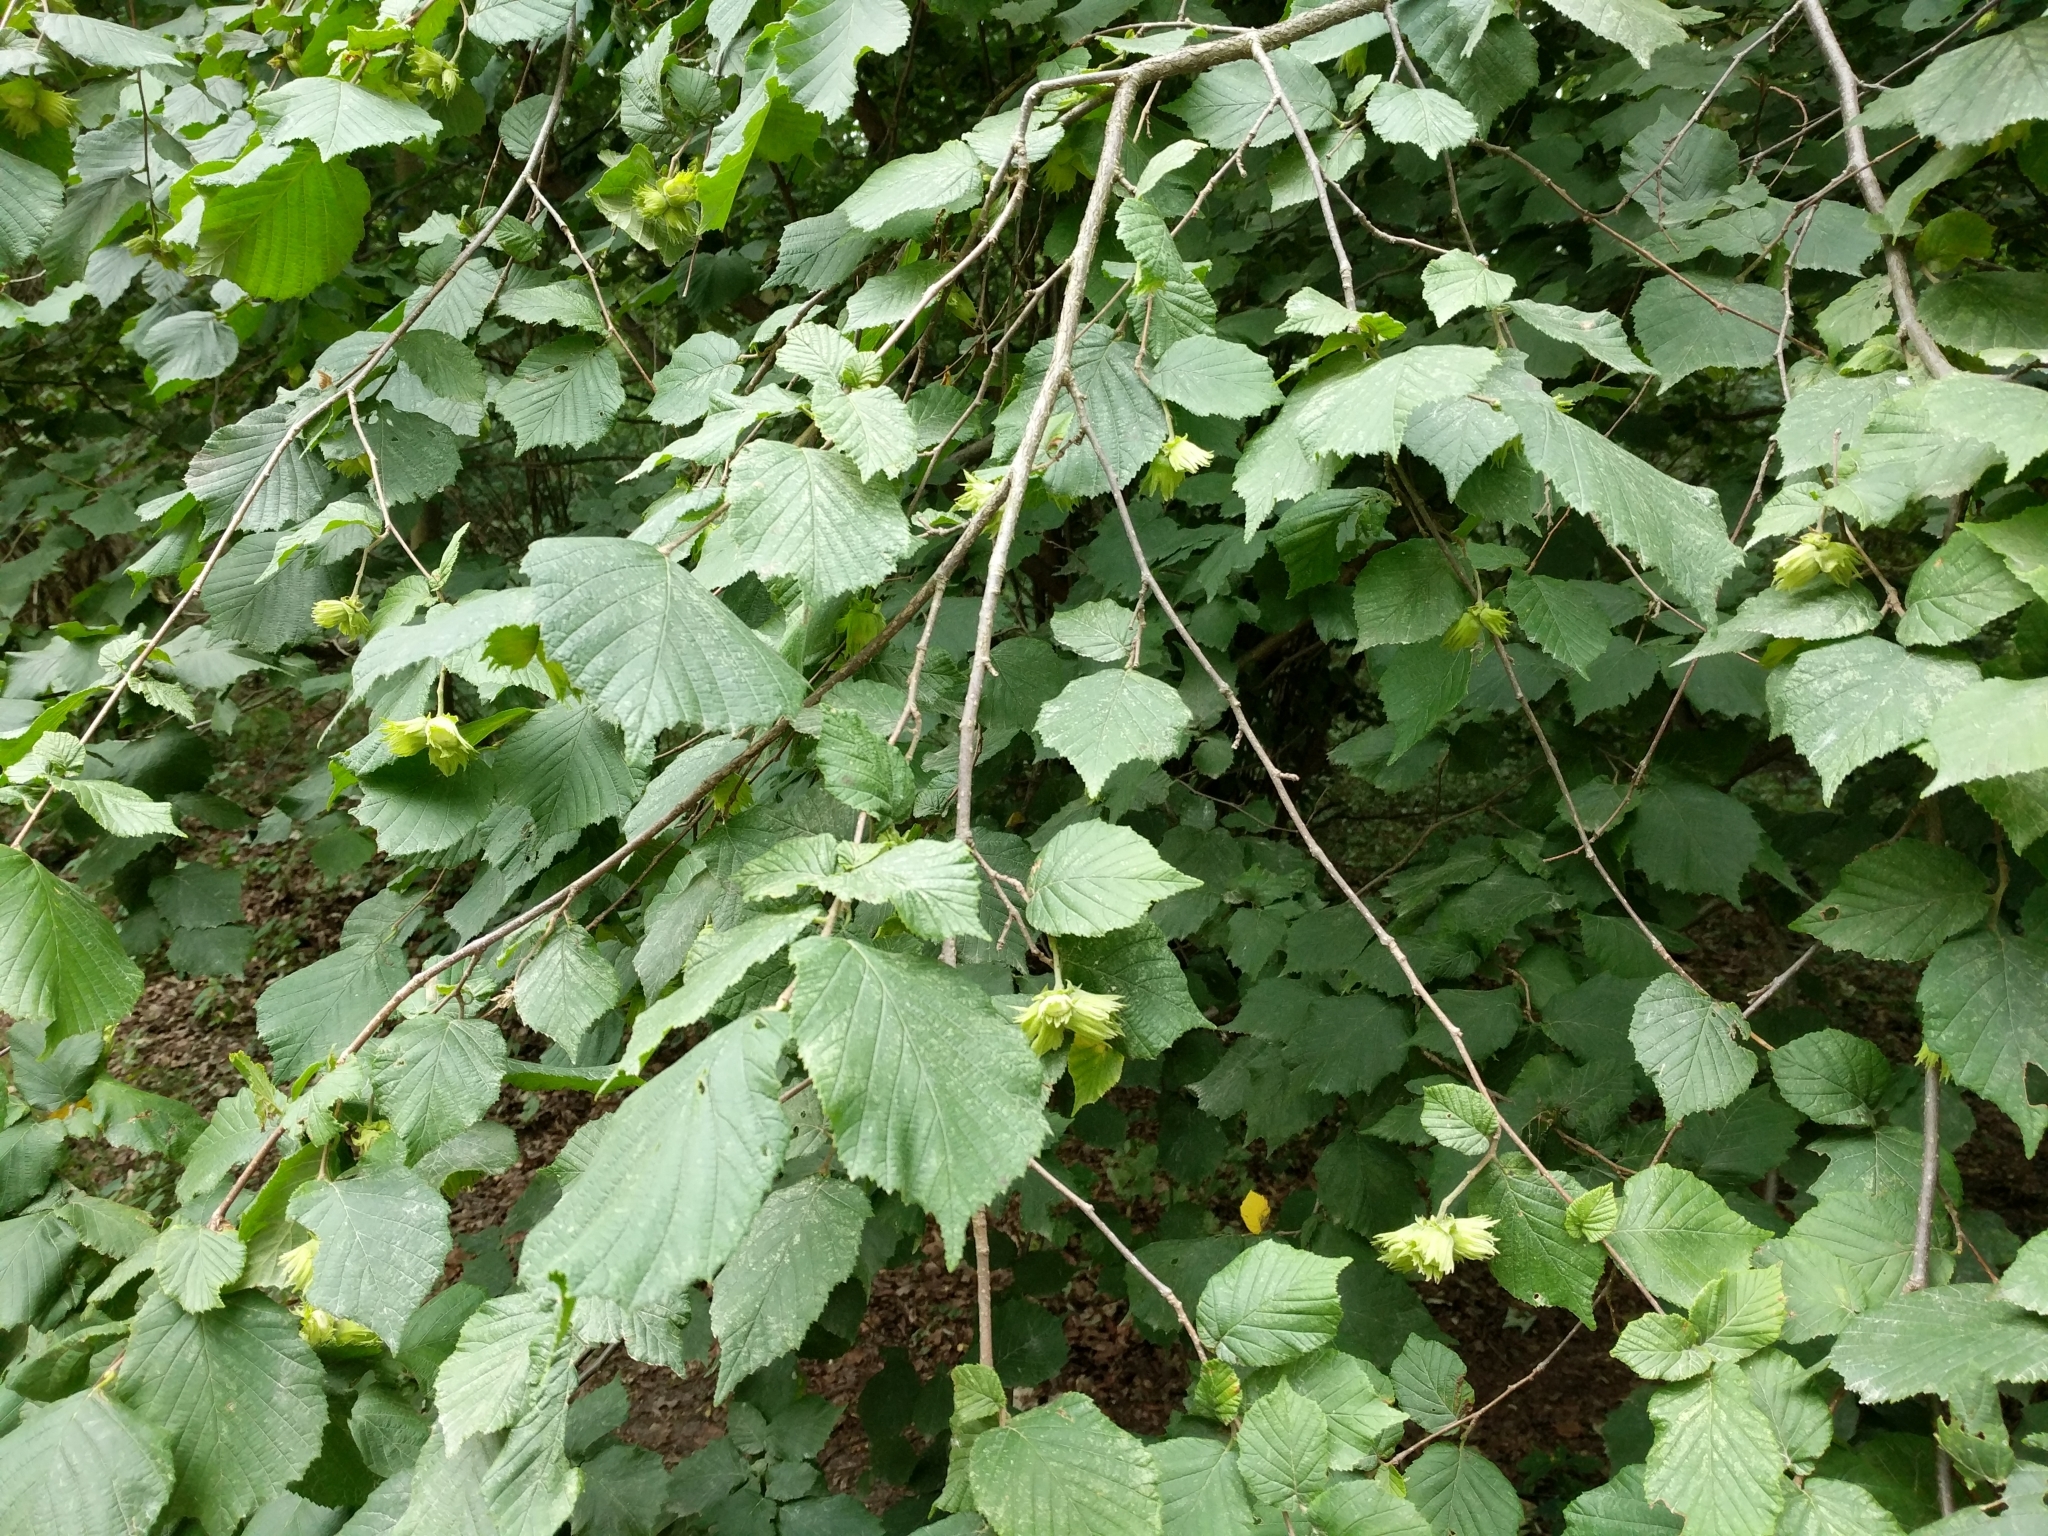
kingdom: Plantae
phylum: Tracheophyta
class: Magnoliopsida
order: Fagales
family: Betulaceae
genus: Corylus
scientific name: Corylus avellana
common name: European hazel
